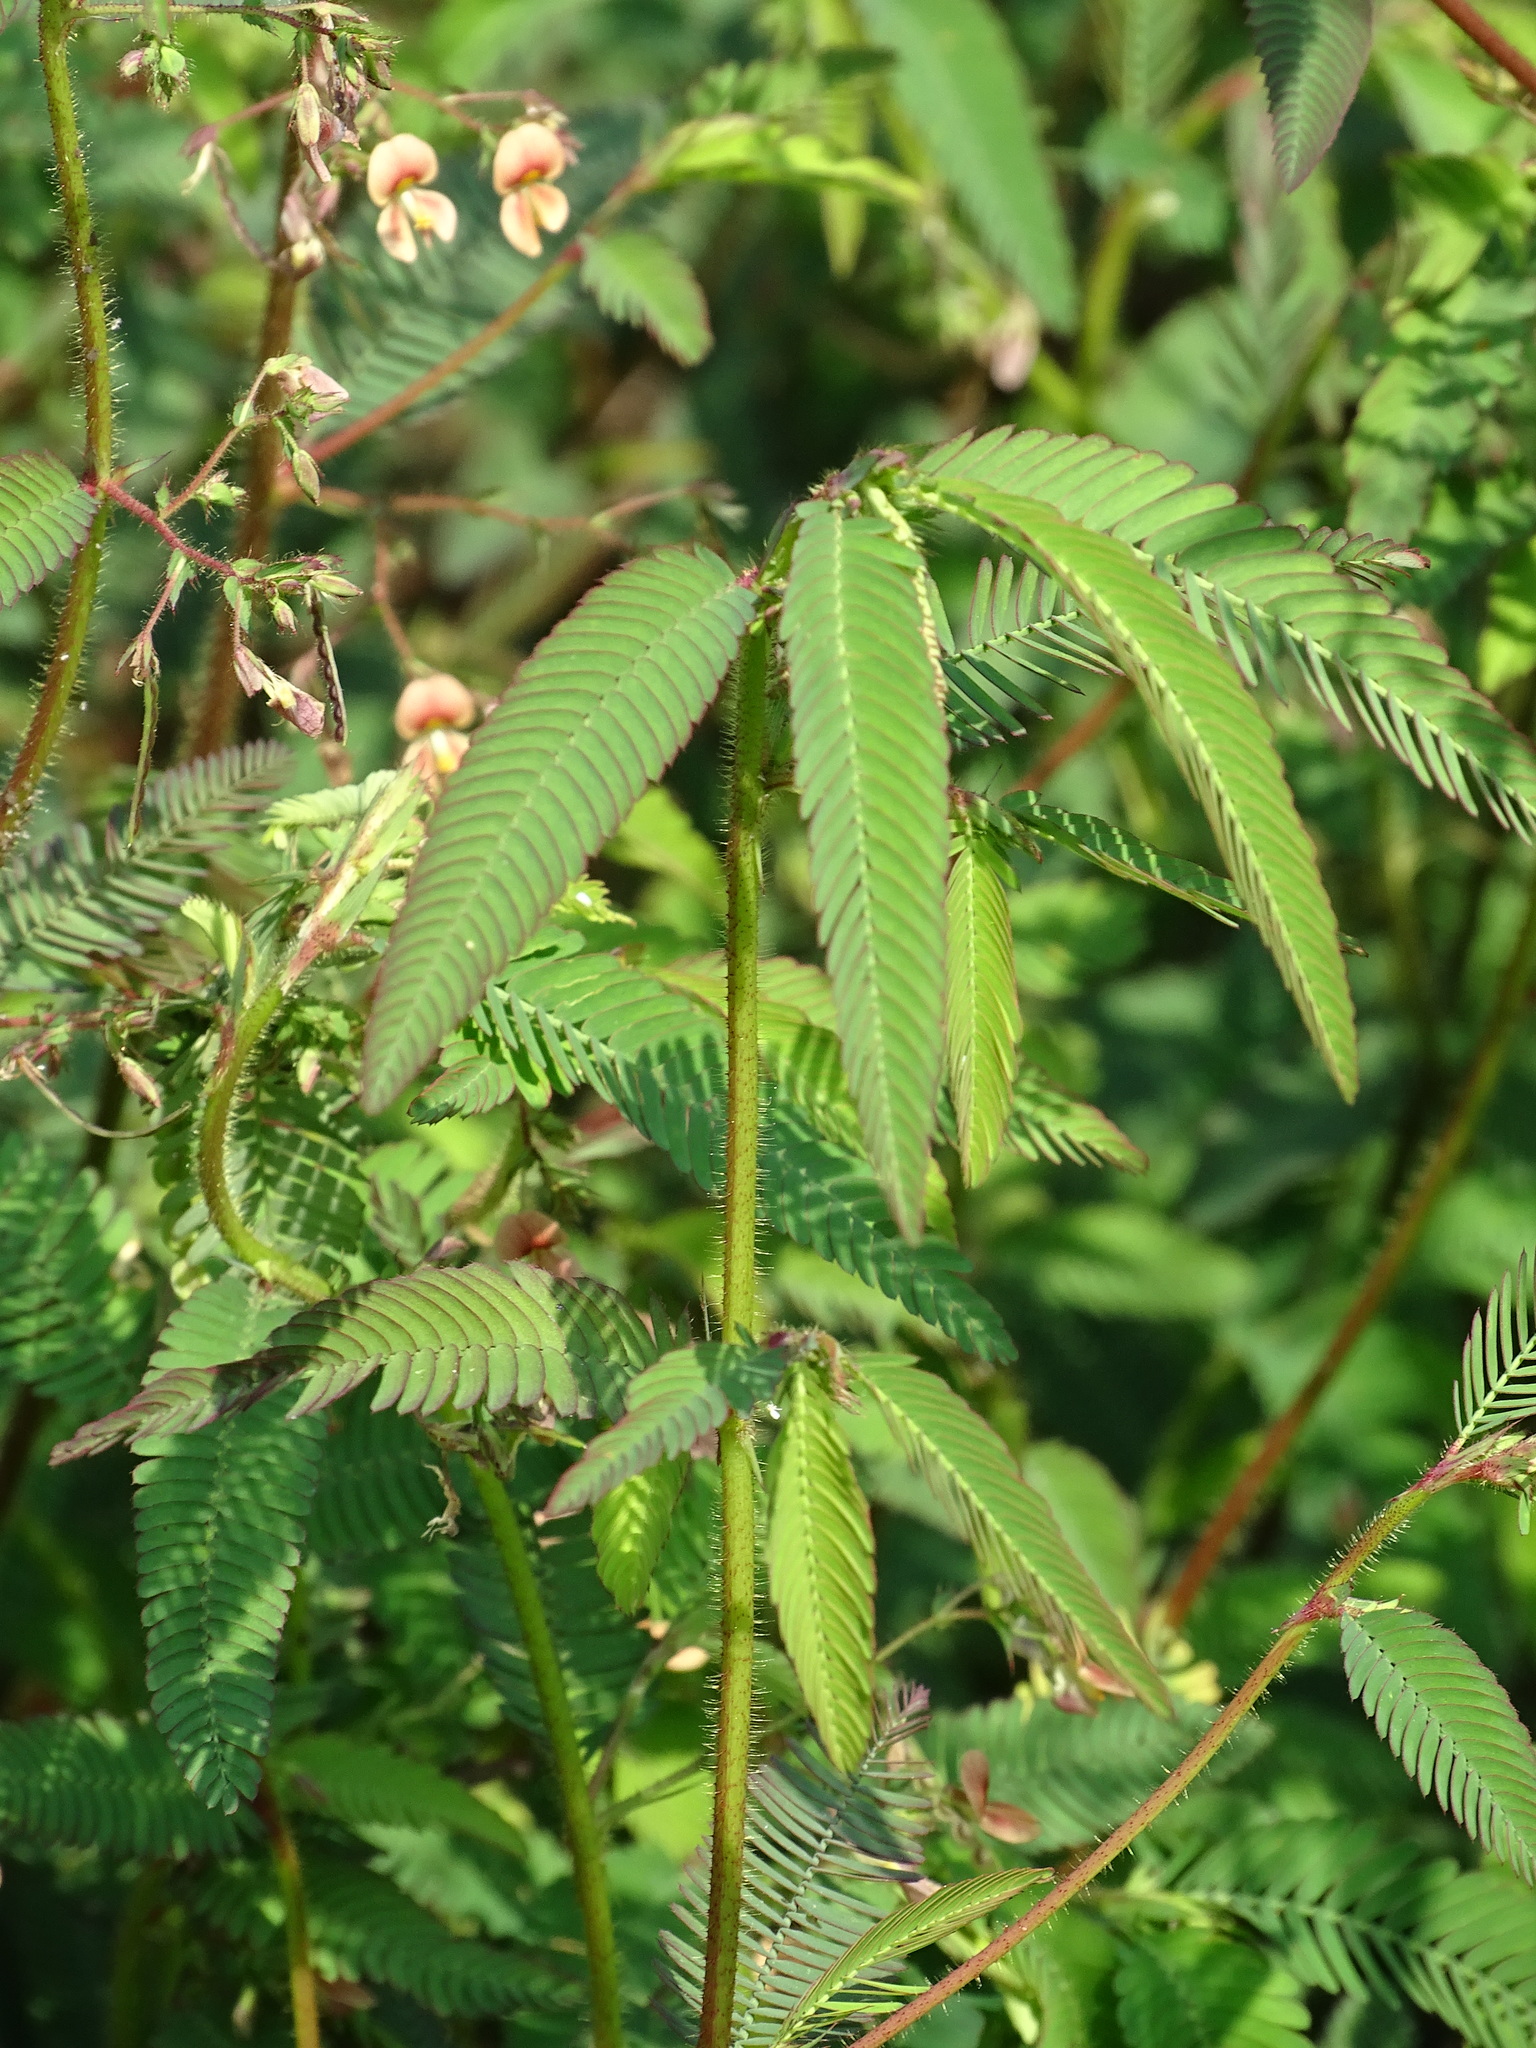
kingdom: Plantae
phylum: Tracheophyta
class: Magnoliopsida
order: Fabales
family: Fabaceae
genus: Aeschynomene
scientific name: Aeschynomene americana
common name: Joint-vetch
